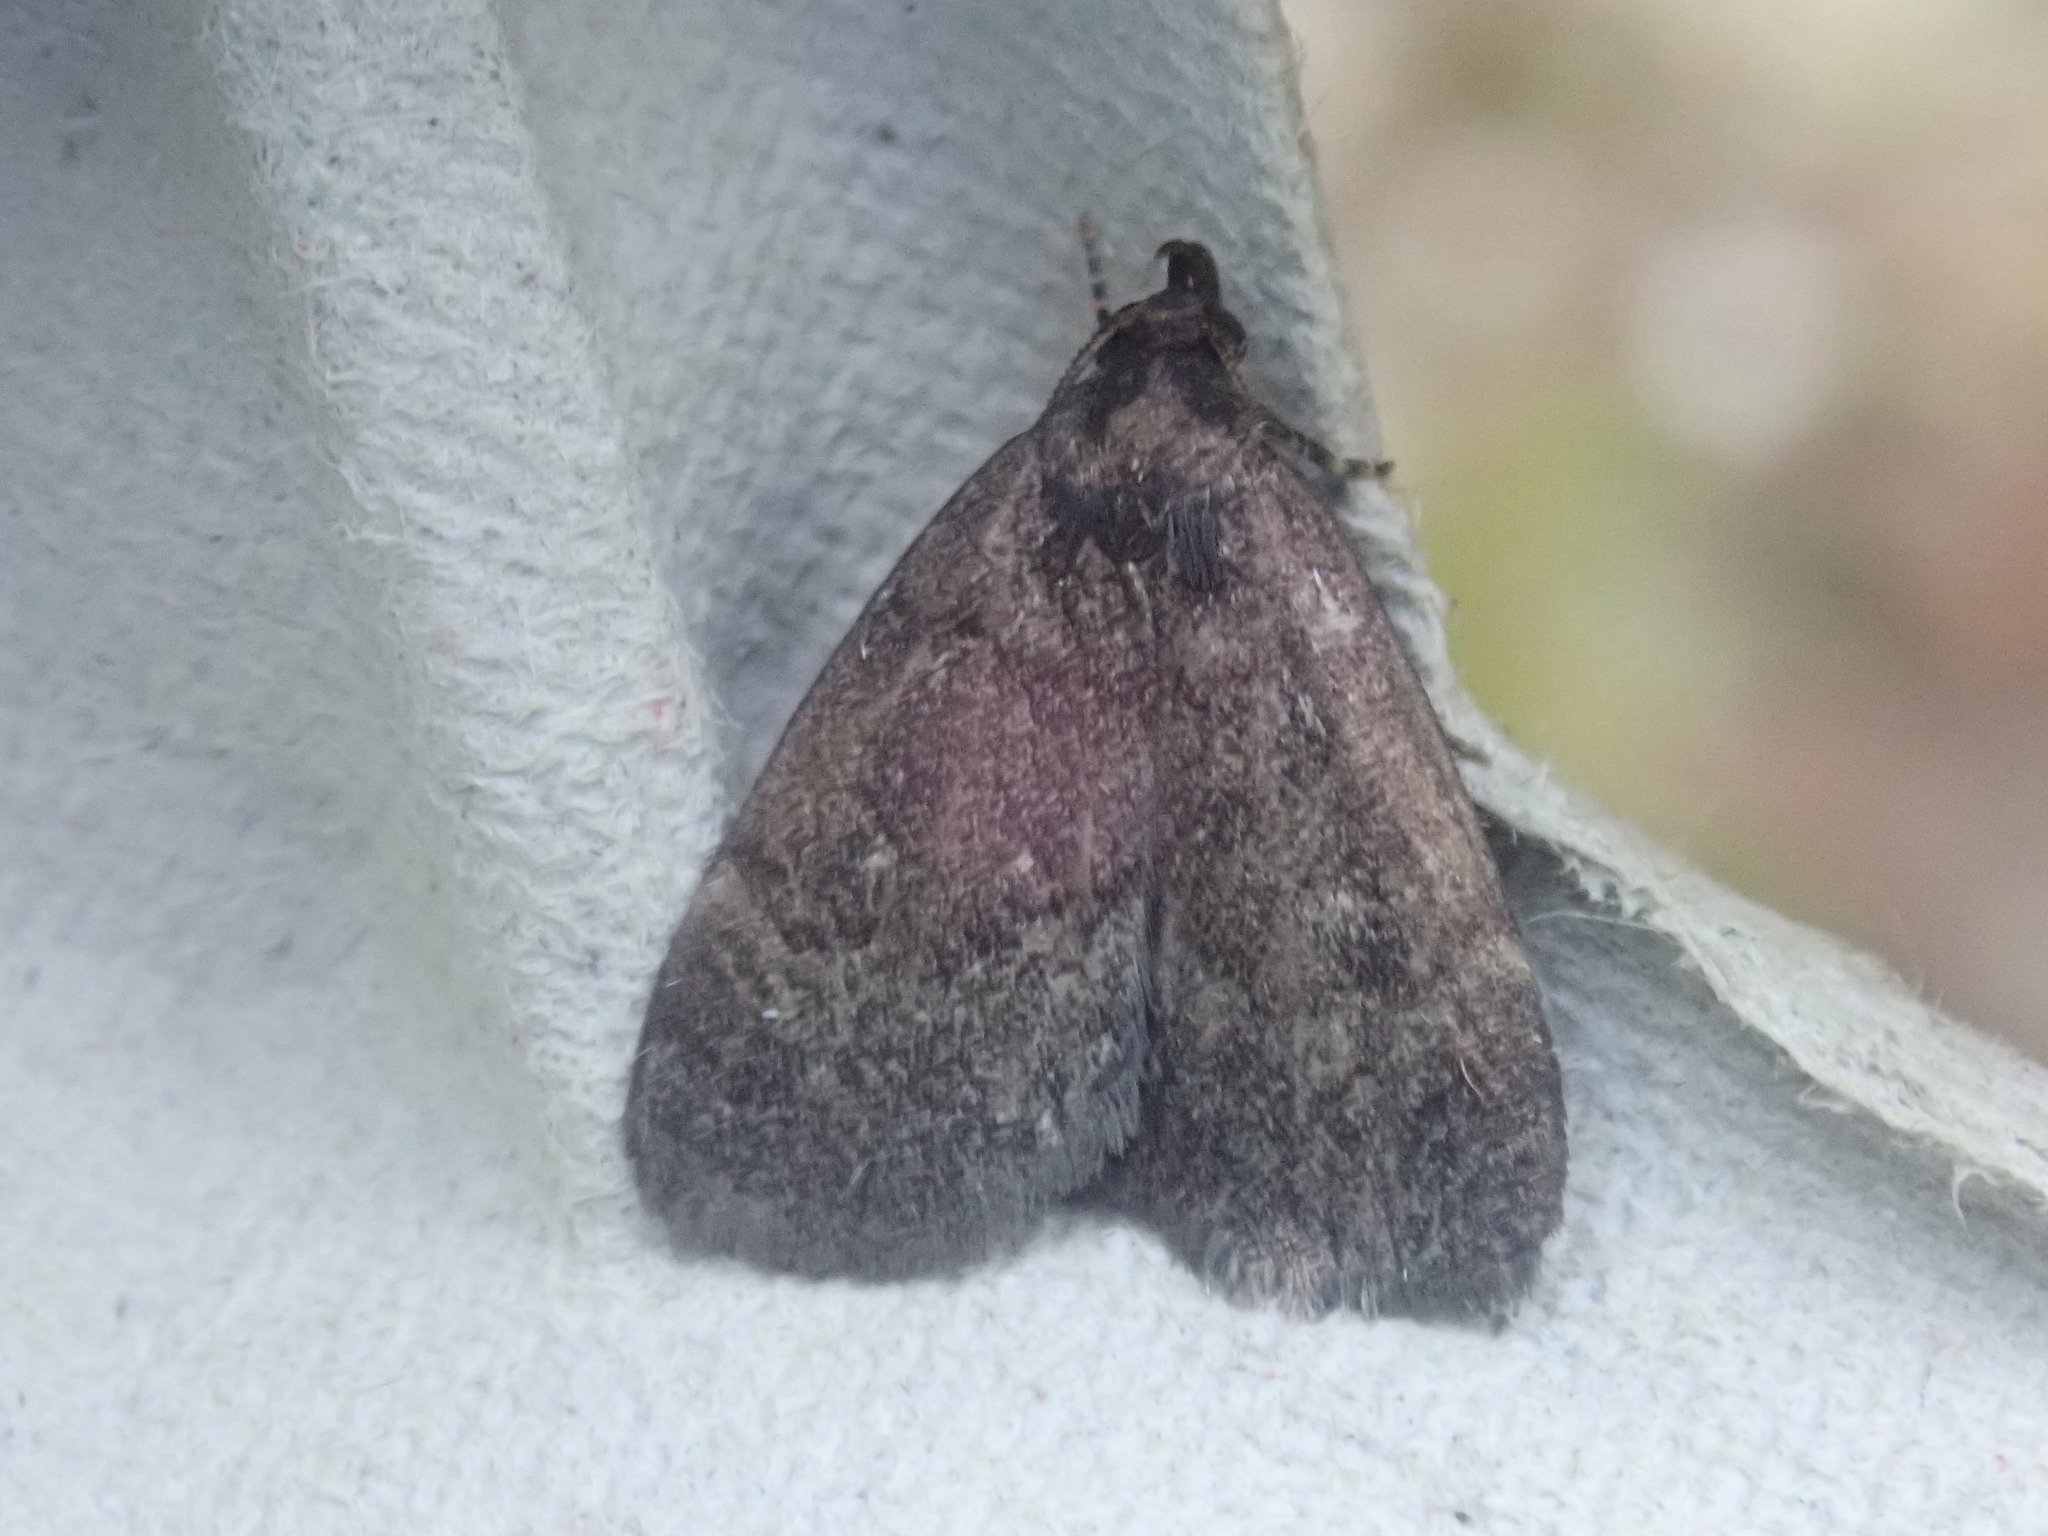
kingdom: Animalia
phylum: Arthropoda
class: Insecta
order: Lepidoptera
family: Erebidae
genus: Idia
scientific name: Idia rotundalis
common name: Rotund idia moth
